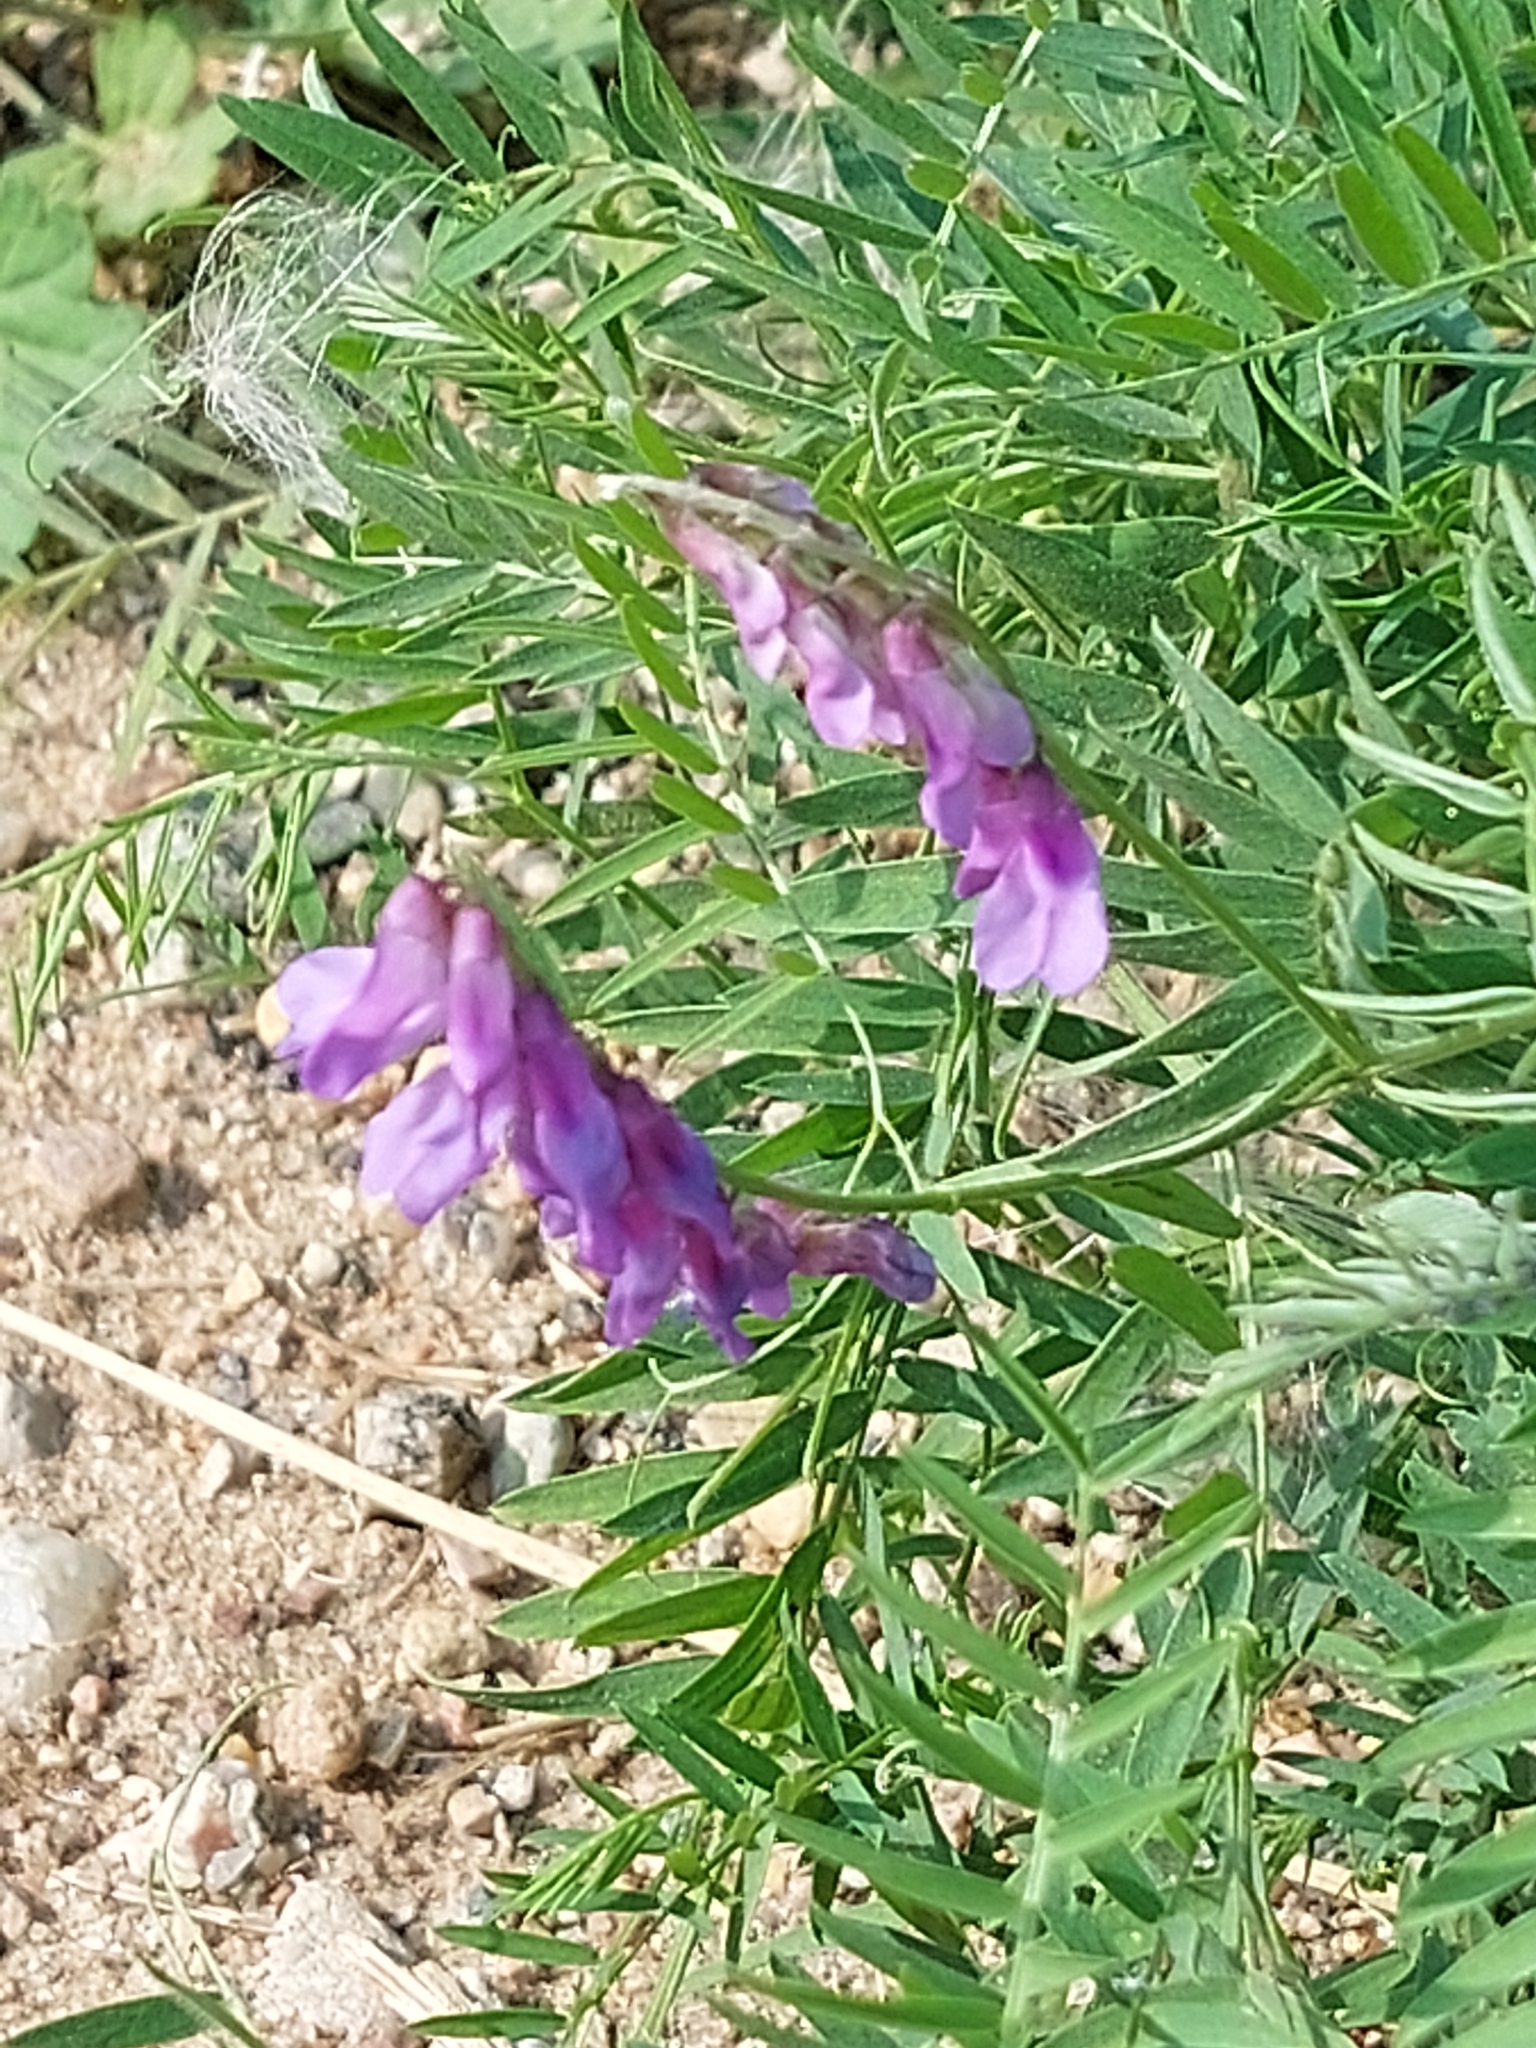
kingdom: Plantae
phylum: Tracheophyta
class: Magnoliopsida
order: Fabales
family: Fabaceae
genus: Vicia
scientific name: Vicia cracca
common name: Bird vetch
